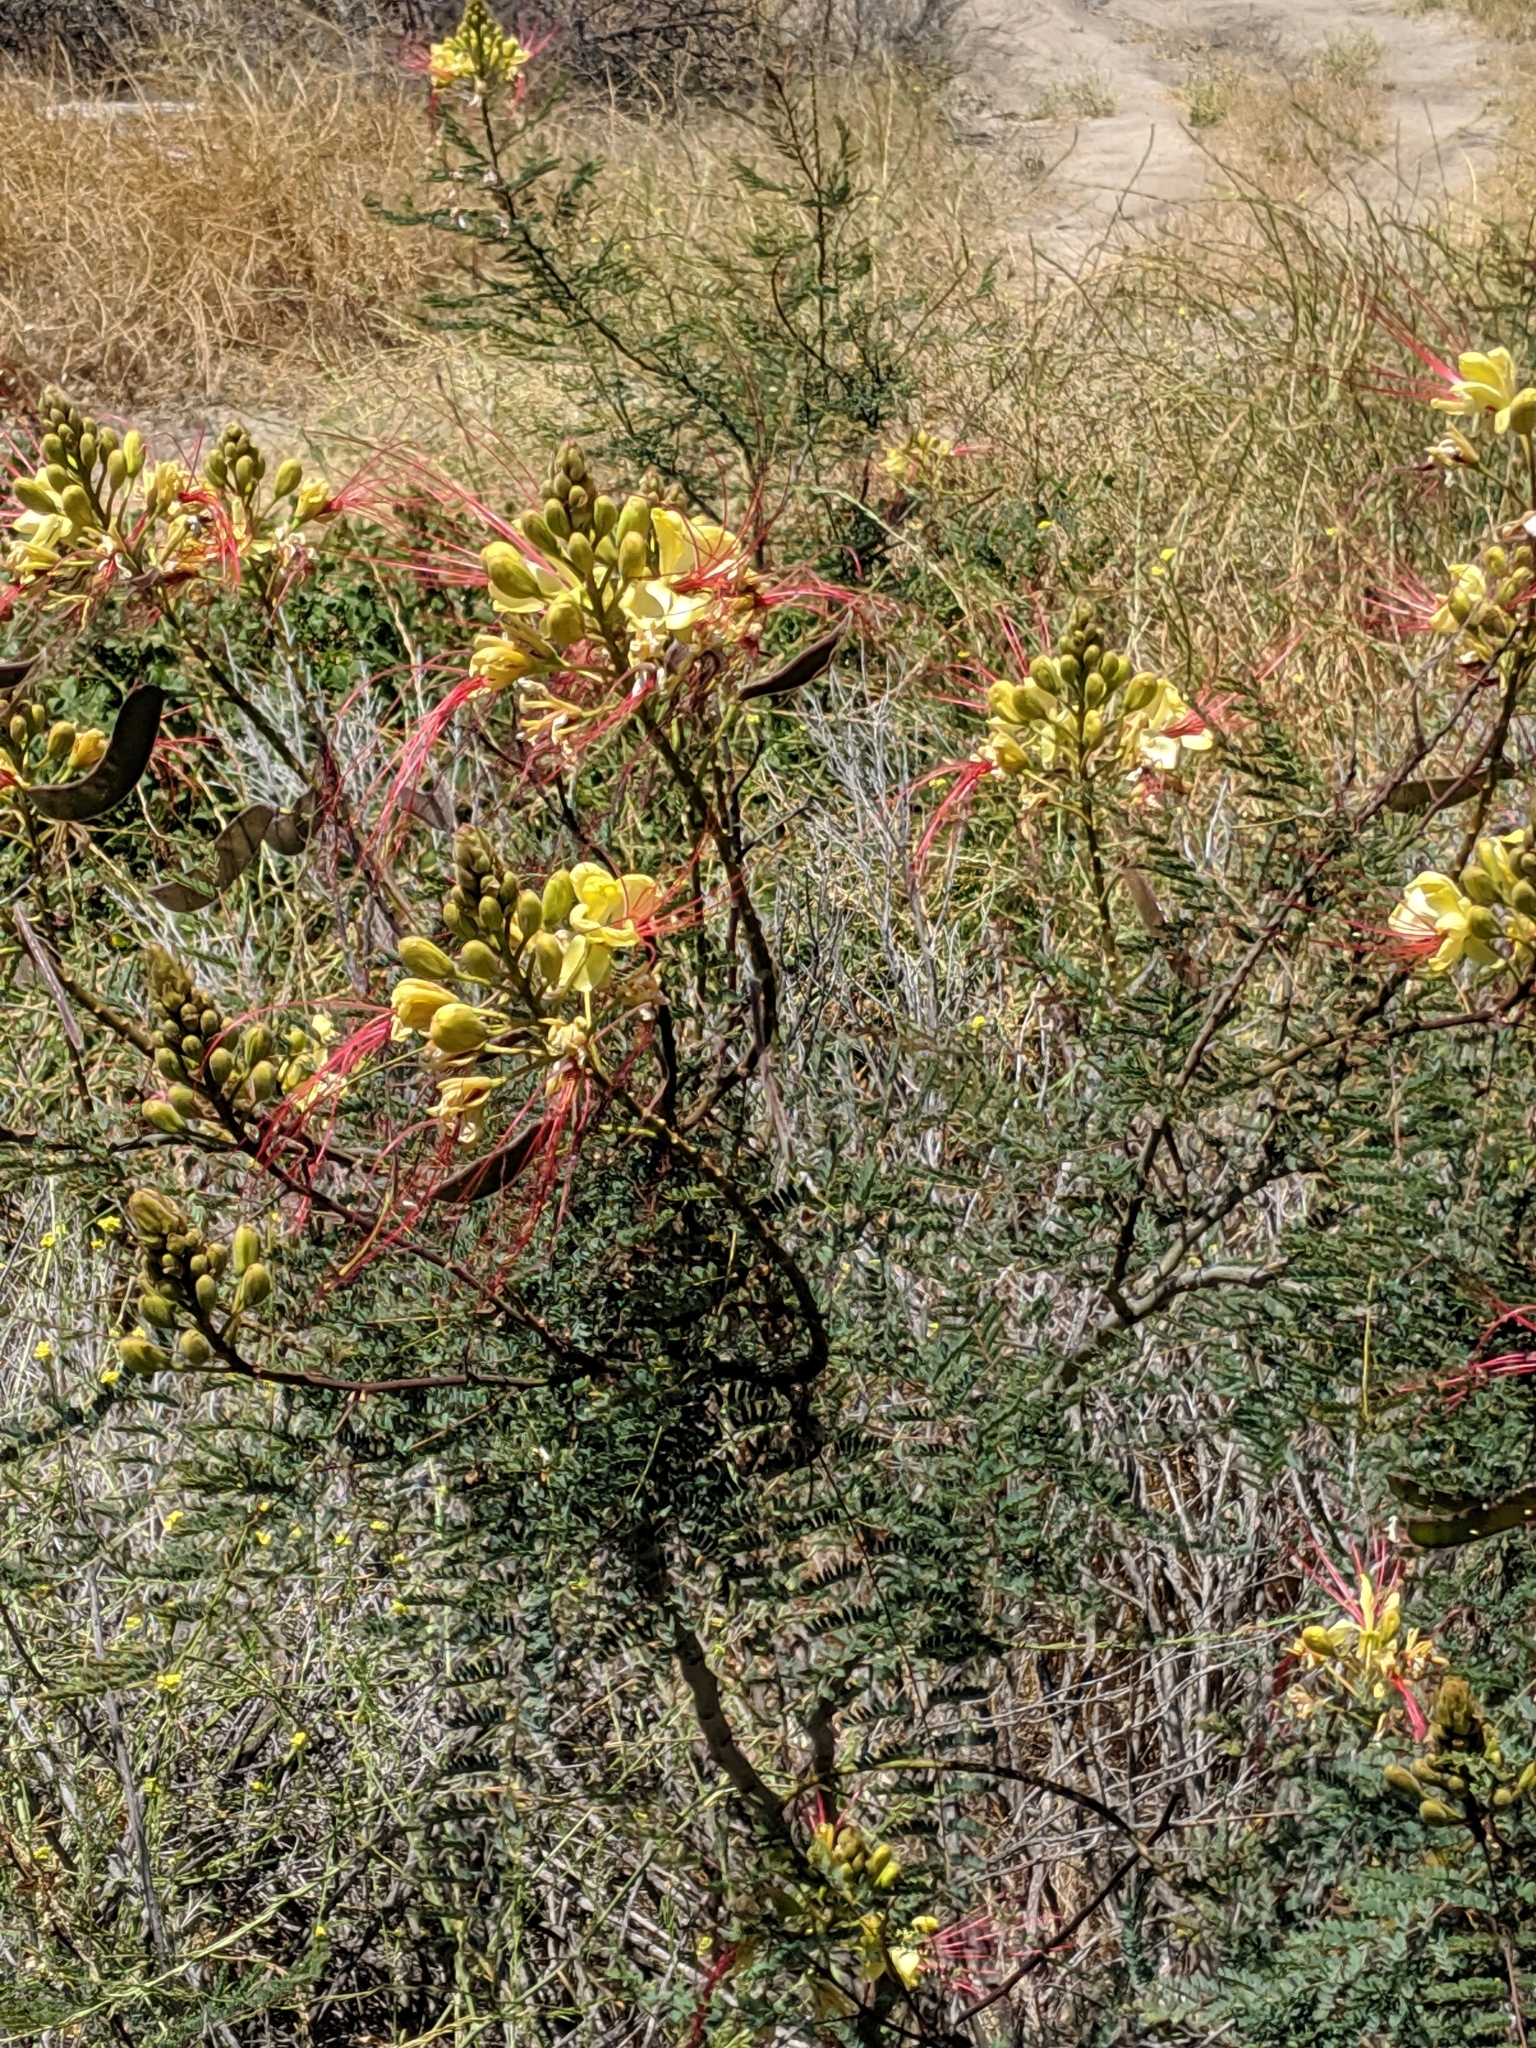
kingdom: Plantae
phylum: Tracheophyta
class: Magnoliopsida
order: Fabales
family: Fabaceae
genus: Erythrostemon
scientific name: Erythrostemon gilliesii
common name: Bird-of-paradise shrub
